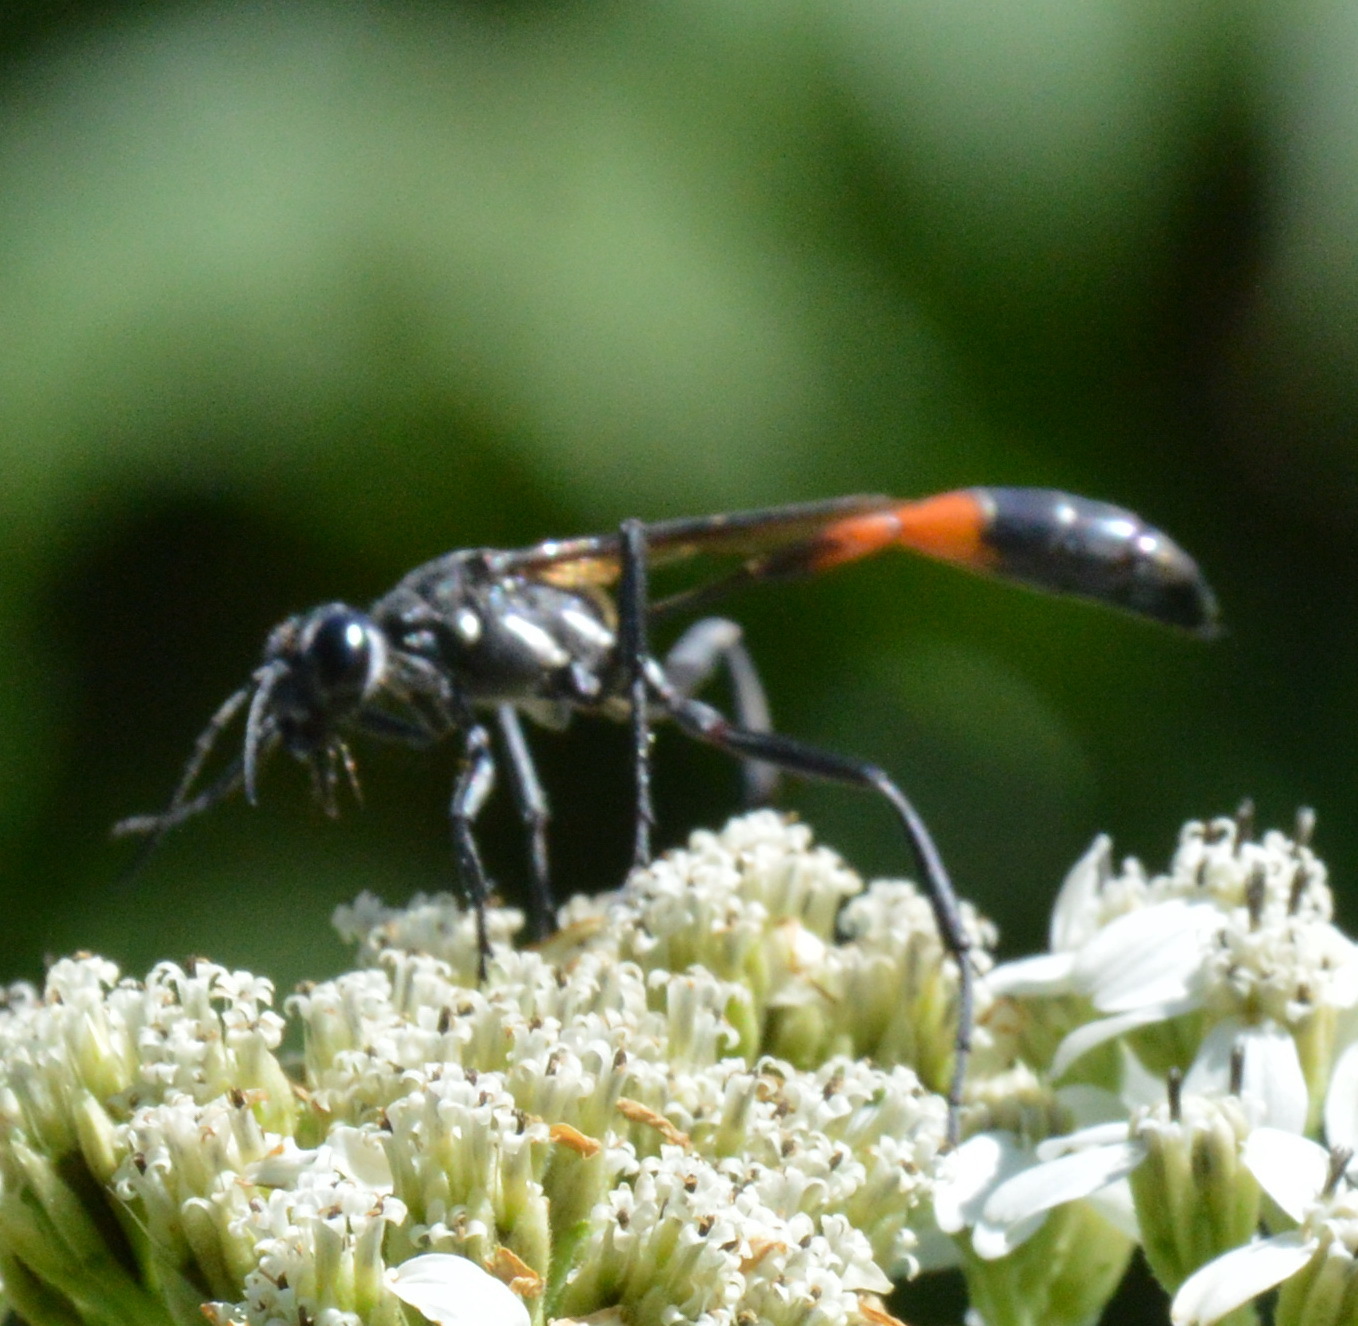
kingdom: Animalia
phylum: Arthropoda
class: Insecta
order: Hymenoptera
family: Sphecidae
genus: Ammophila
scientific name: Ammophila procera
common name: Common thread-waisted wasp
